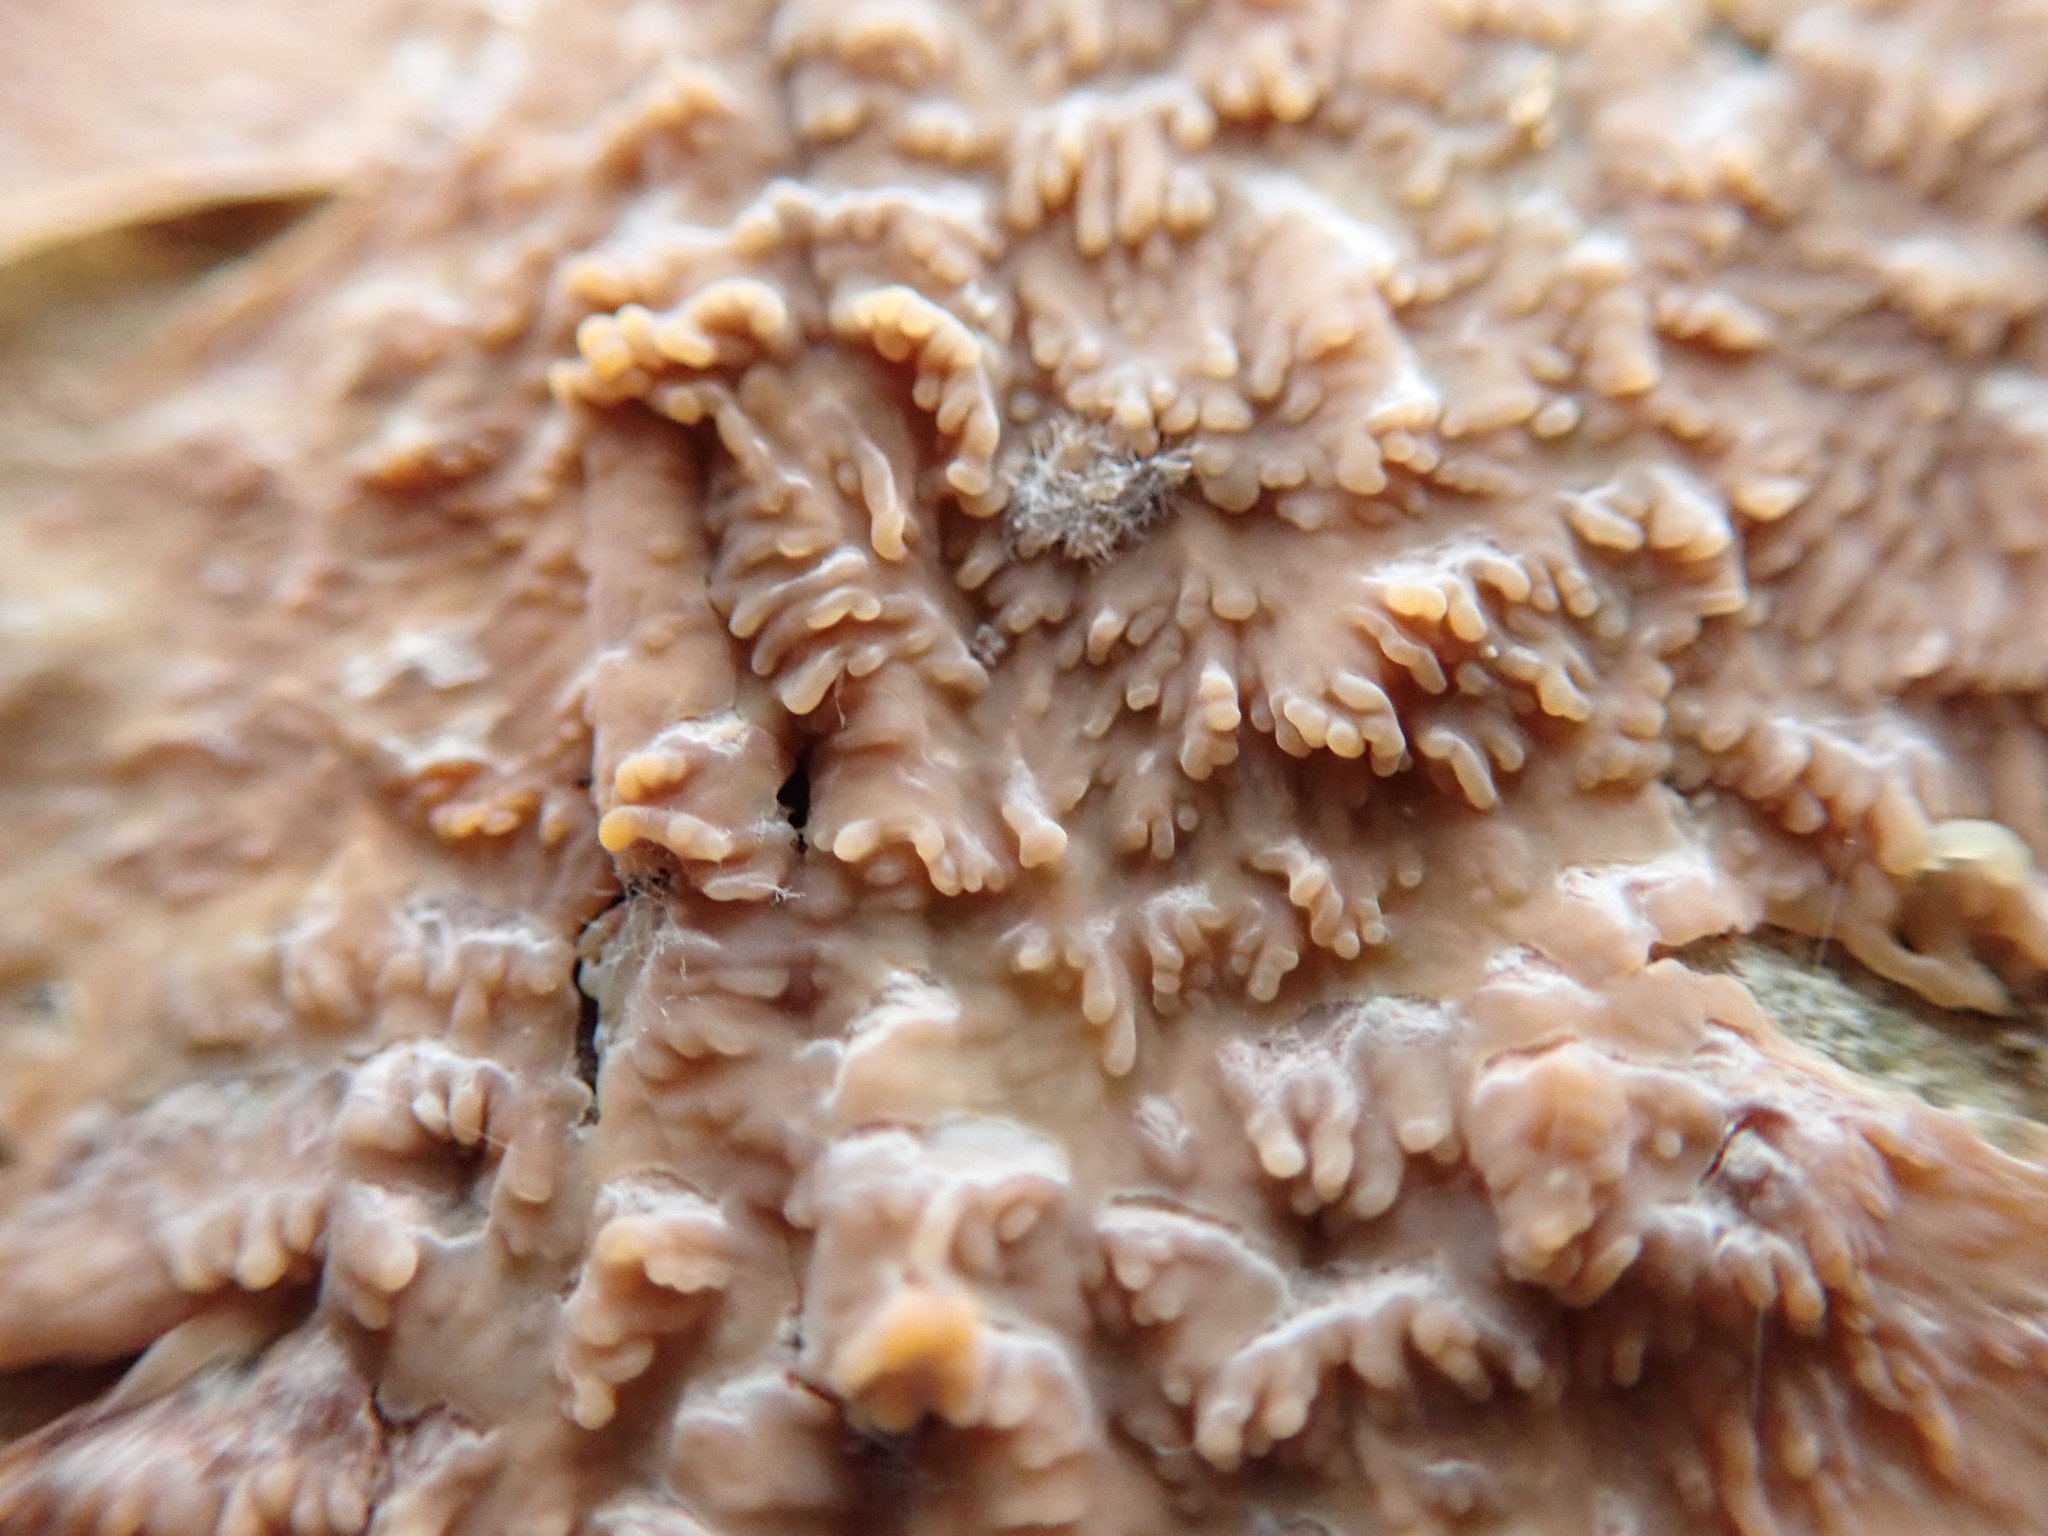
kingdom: Fungi
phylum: Basidiomycota
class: Agaricomycetes
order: Polyporales
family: Meruliaceae
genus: Phlebia
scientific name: Phlebia radiata
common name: Wrinkled crust
